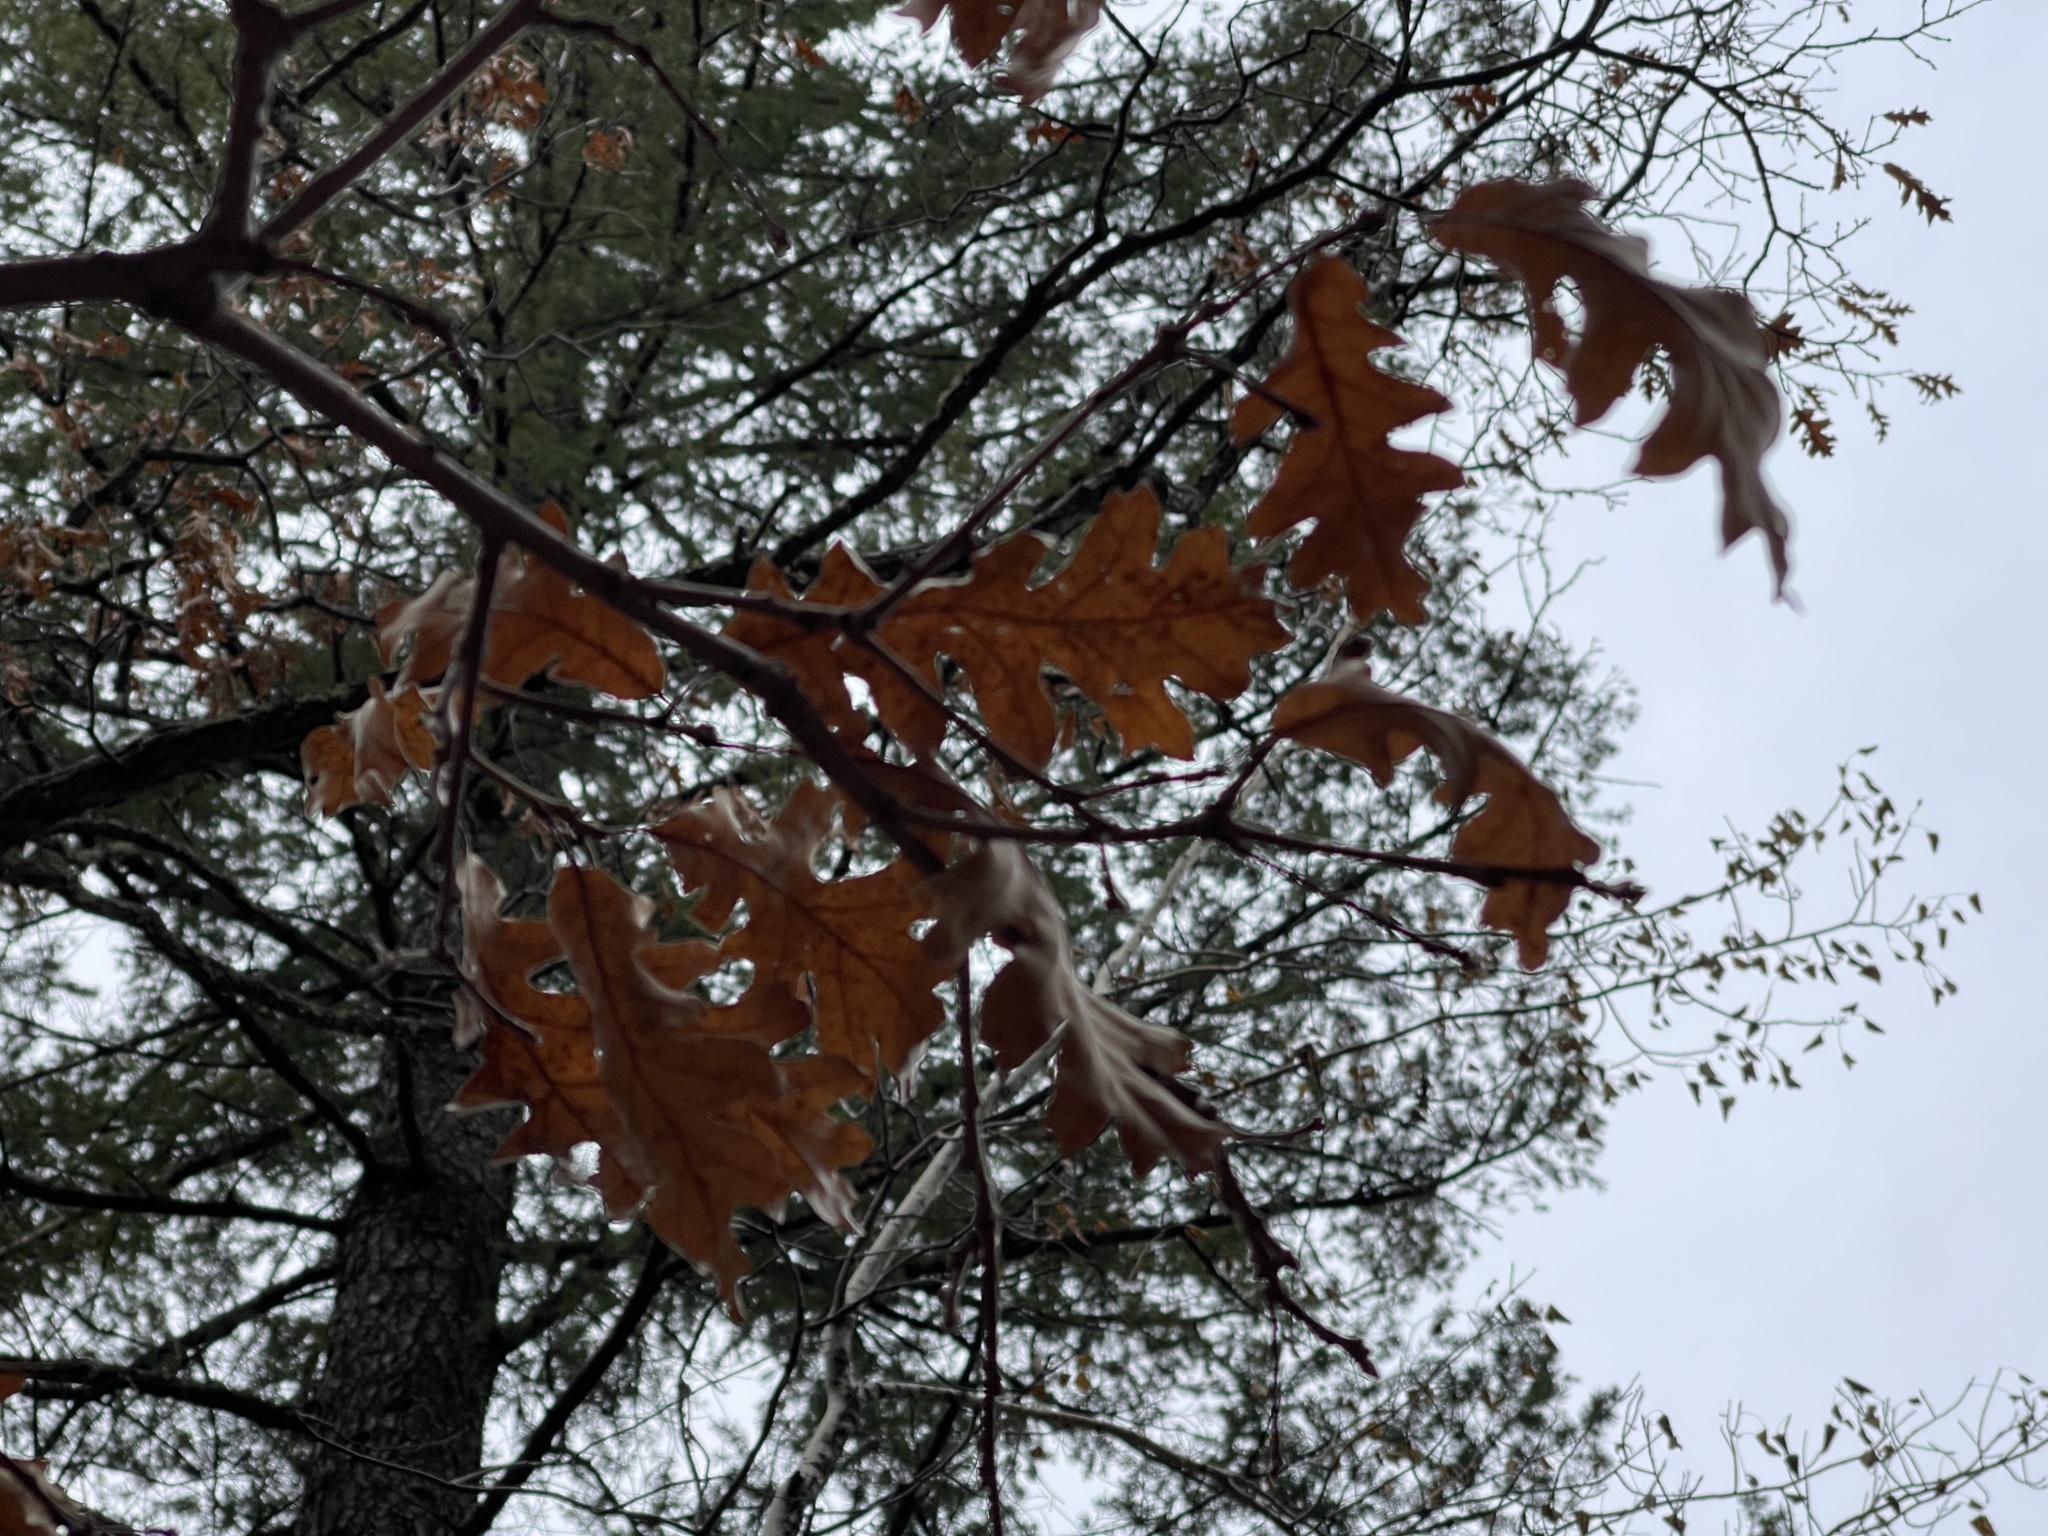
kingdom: Plantae
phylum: Tracheophyta
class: Magnoliopsida
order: Fagales
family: Fagaceae
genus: Quercus
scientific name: Quercus gambelii
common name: Gambel oak
